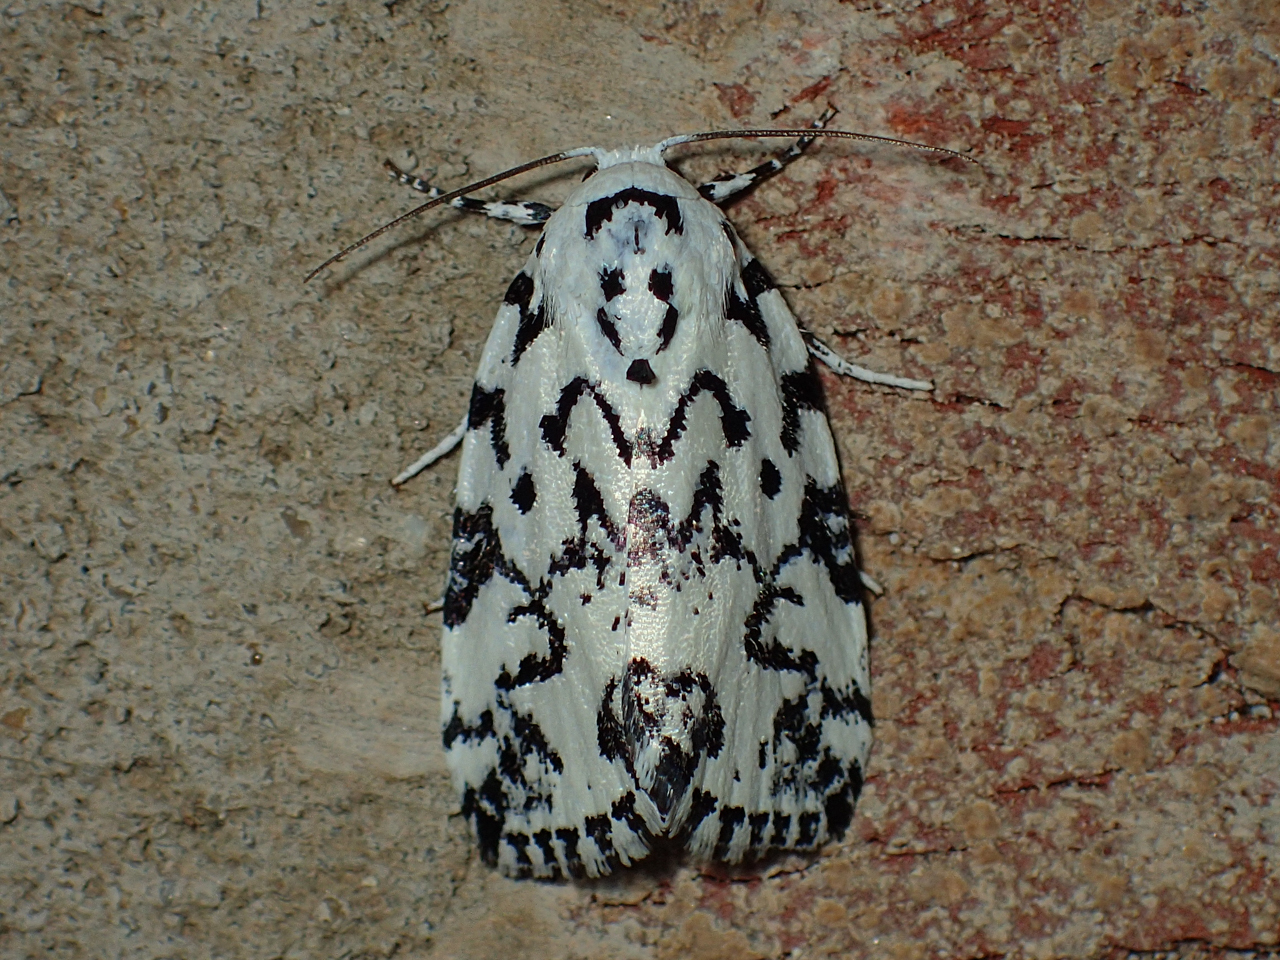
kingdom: Animalia
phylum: Arthropoda
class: Insecta
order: Lepidoptera
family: Noctuidae
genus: Polygrammate
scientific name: Polygrammate hebraeicum
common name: Hebrew moth
